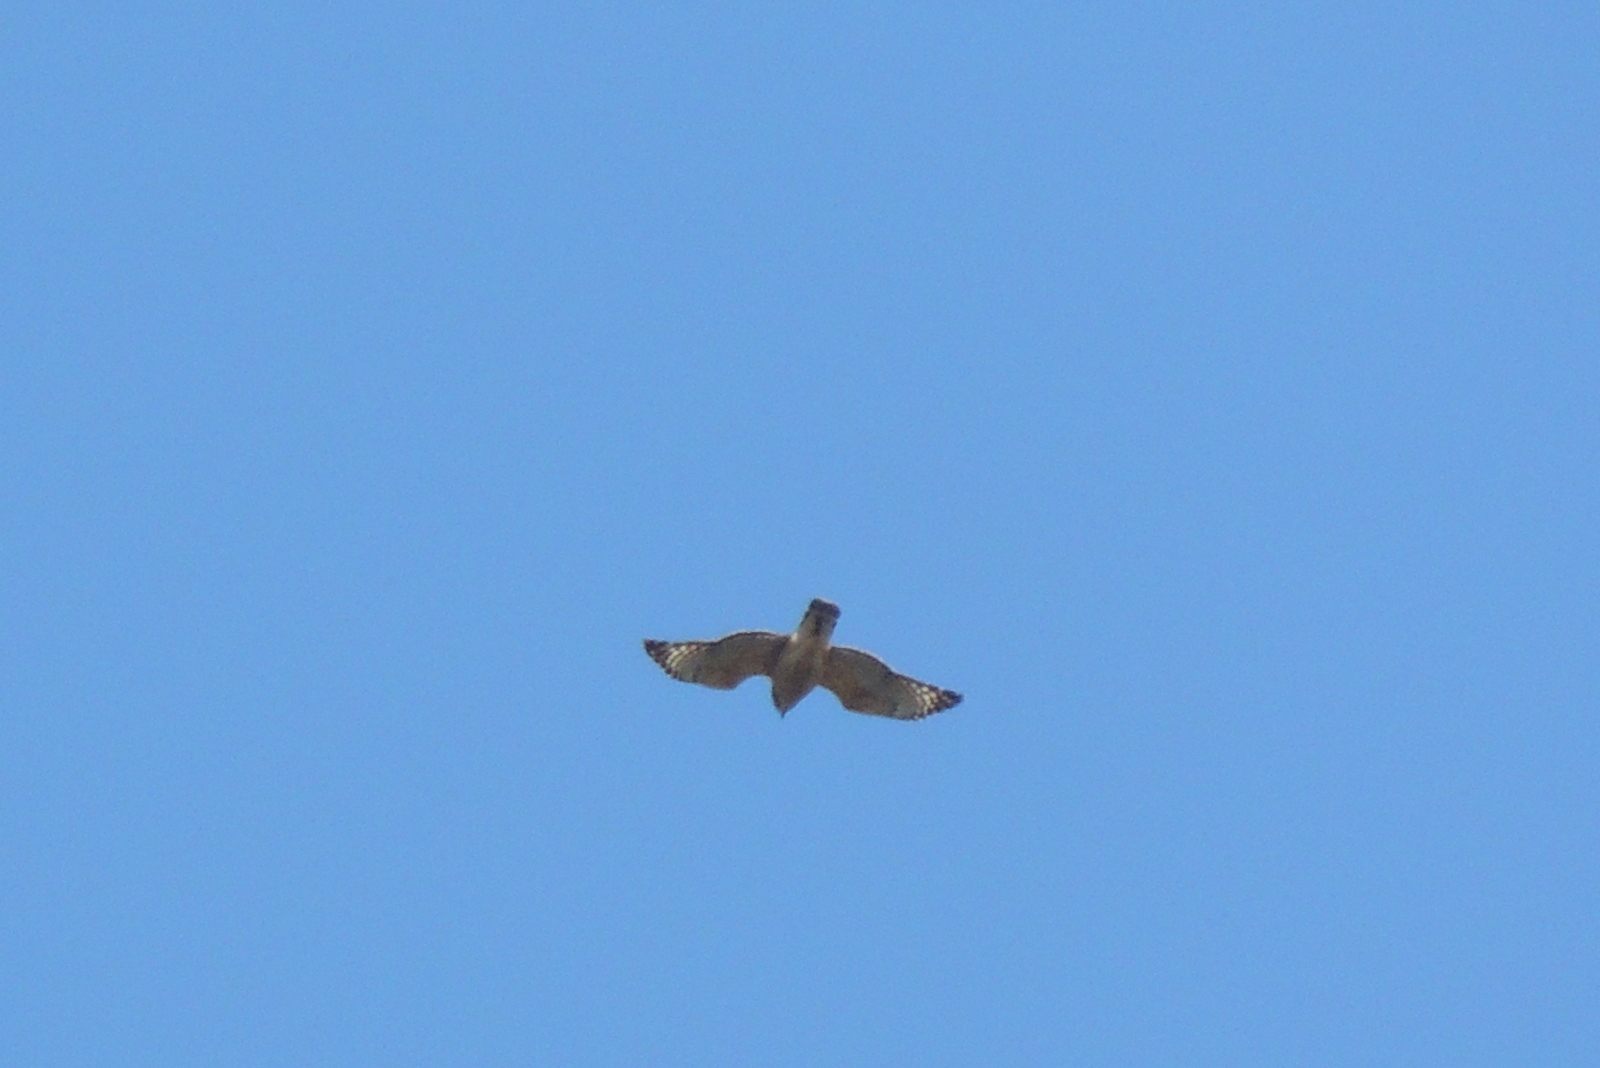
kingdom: Animalia
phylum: Chordata
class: Aves
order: Accipitriformes
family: Accipitridae
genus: Buteo
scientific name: Buteo lineatus
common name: Red-shouldered hawk
